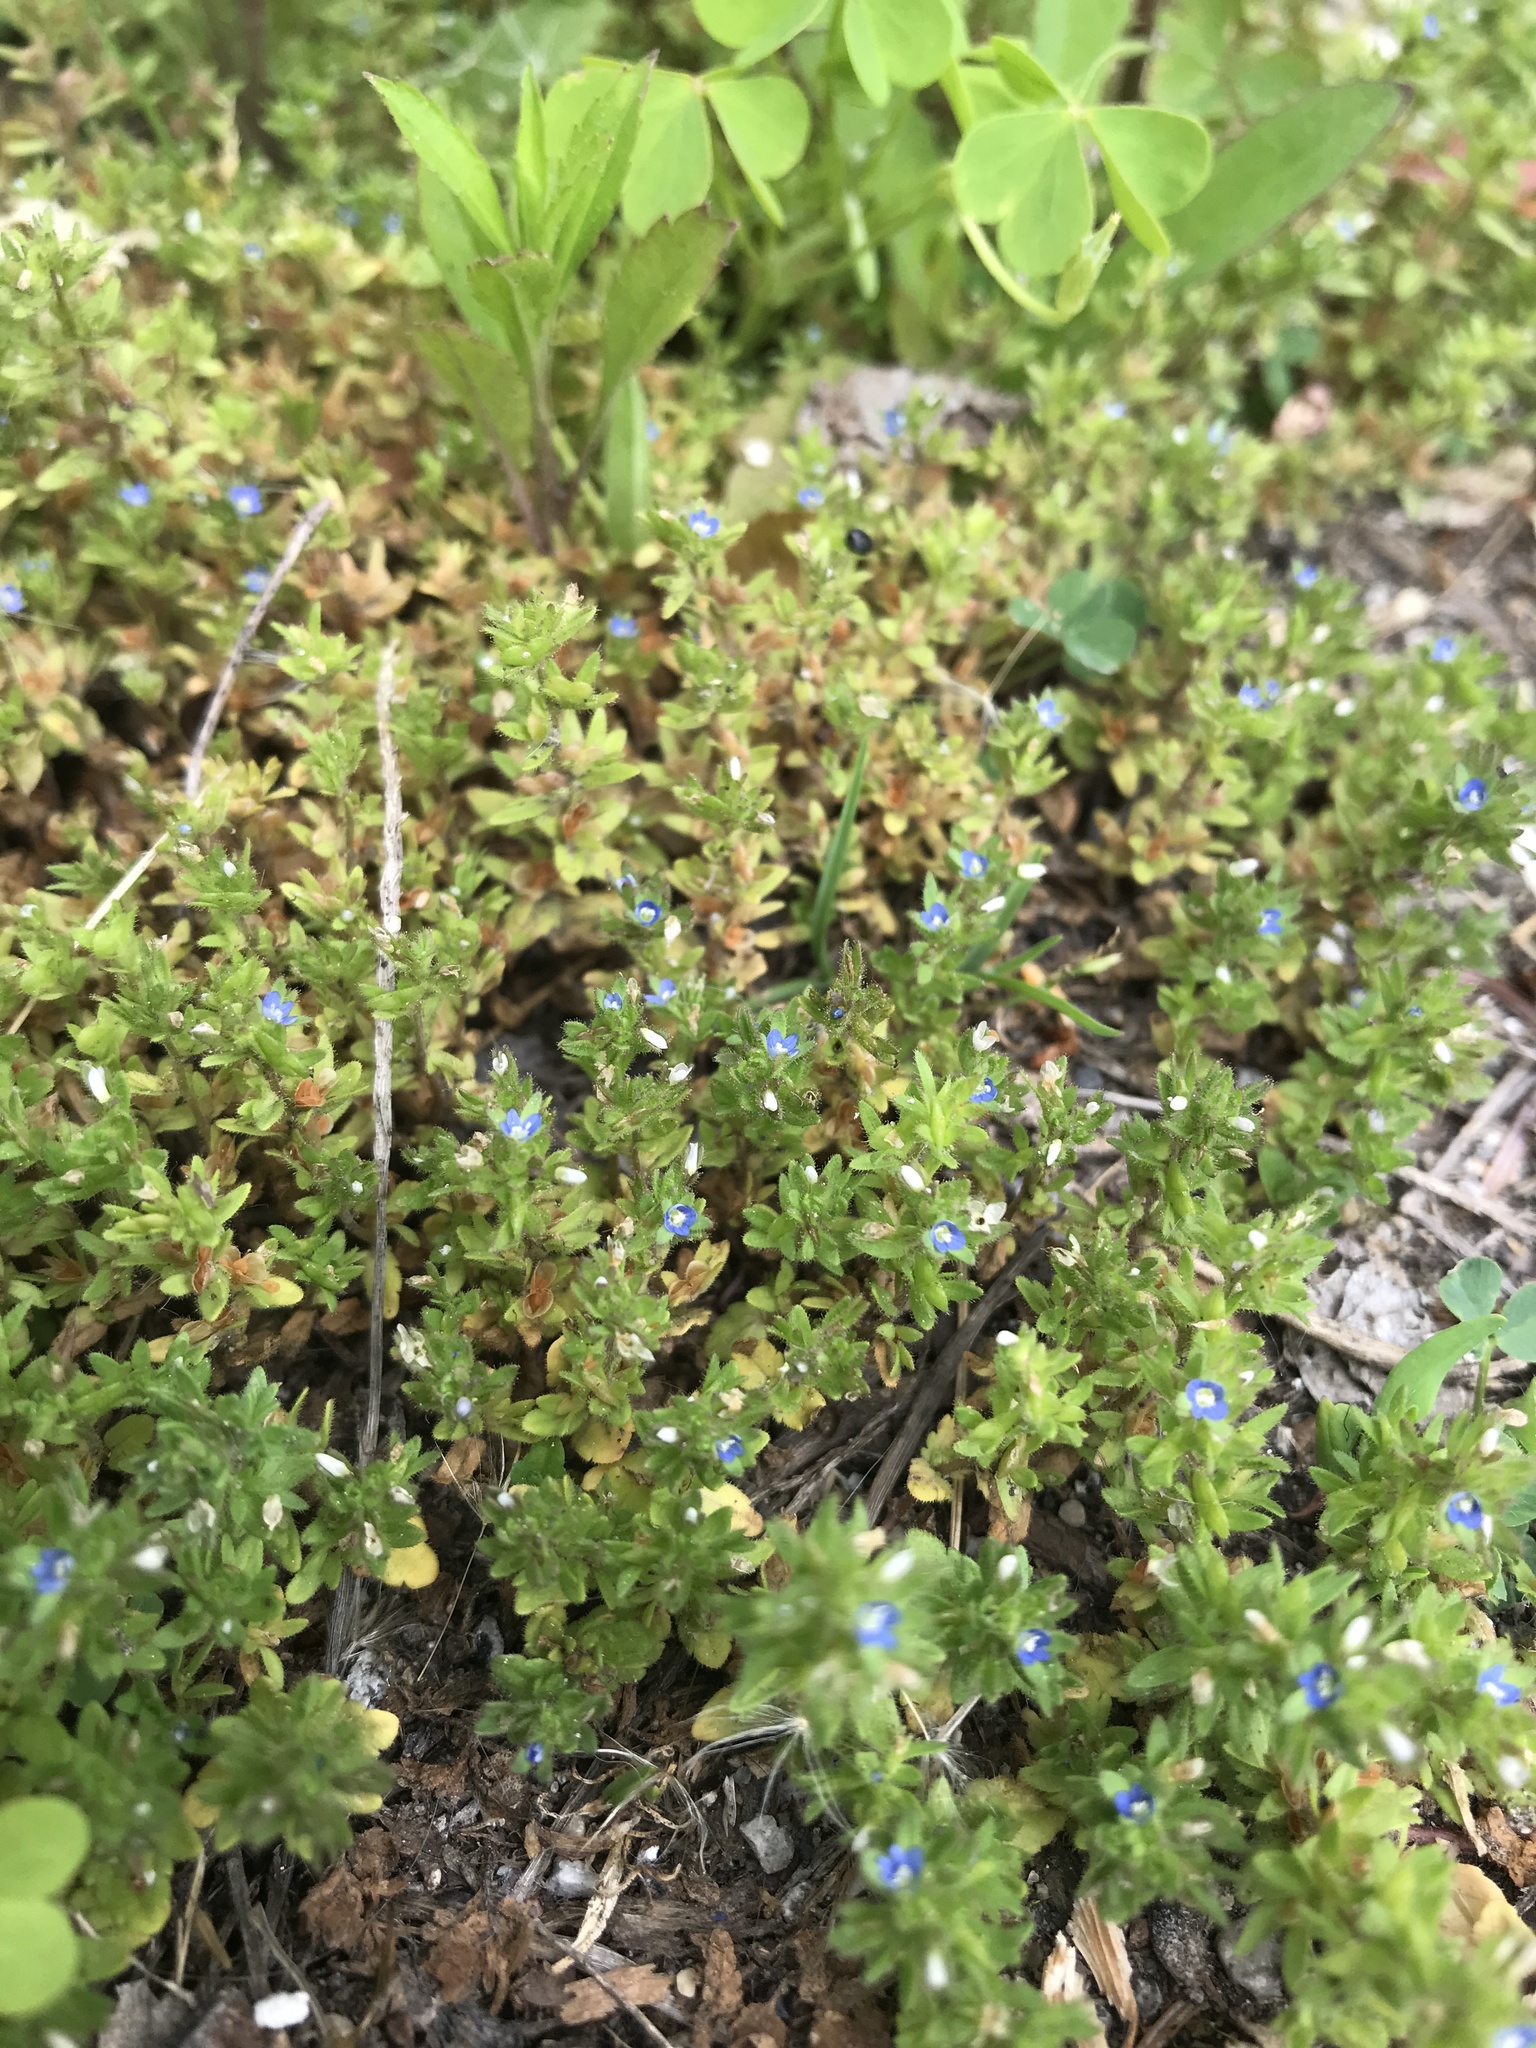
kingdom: Plantae
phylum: Tracheophyta
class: Magnoliopsida
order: Lamiales
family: Plantaginaceae
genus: Veronica
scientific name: Veronica arvensis
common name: Corn speedwell
